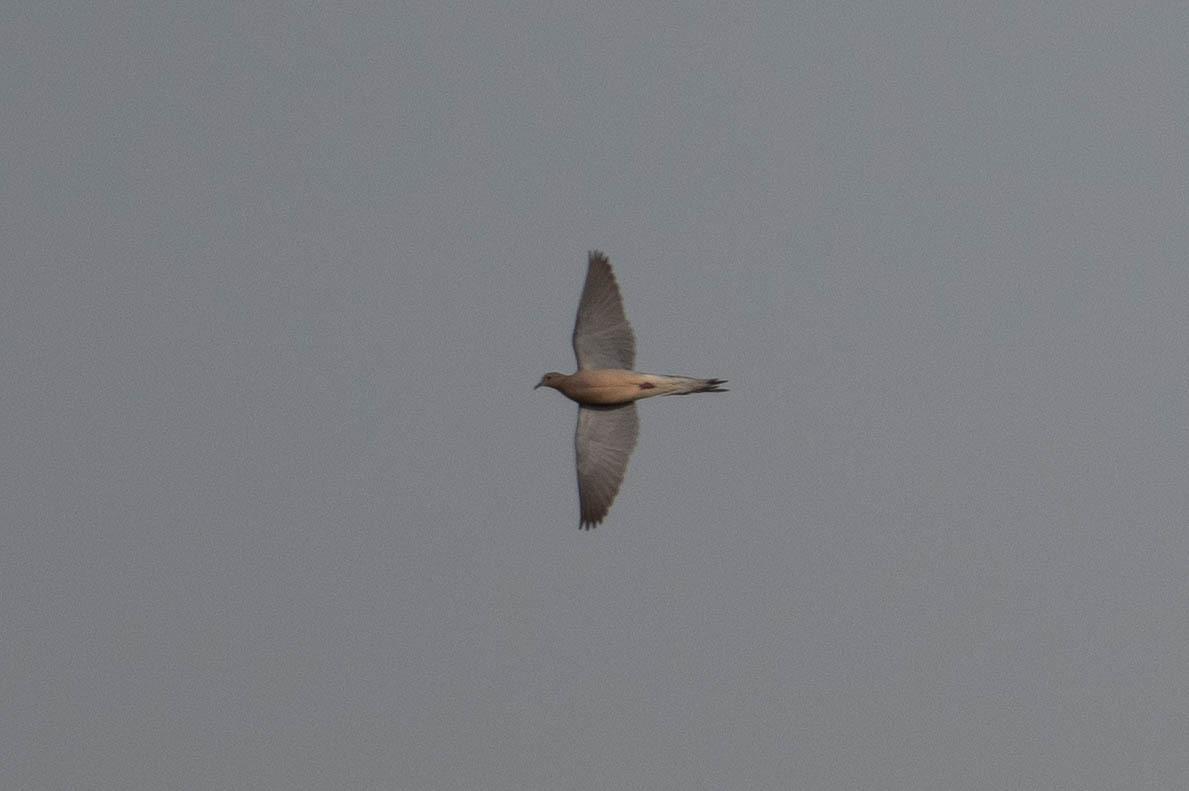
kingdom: Animalia
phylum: Chordata
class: Aves
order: Columbiformes
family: Columbidae
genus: Zenaida
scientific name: Zenaida macroura
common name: Mourning dove
